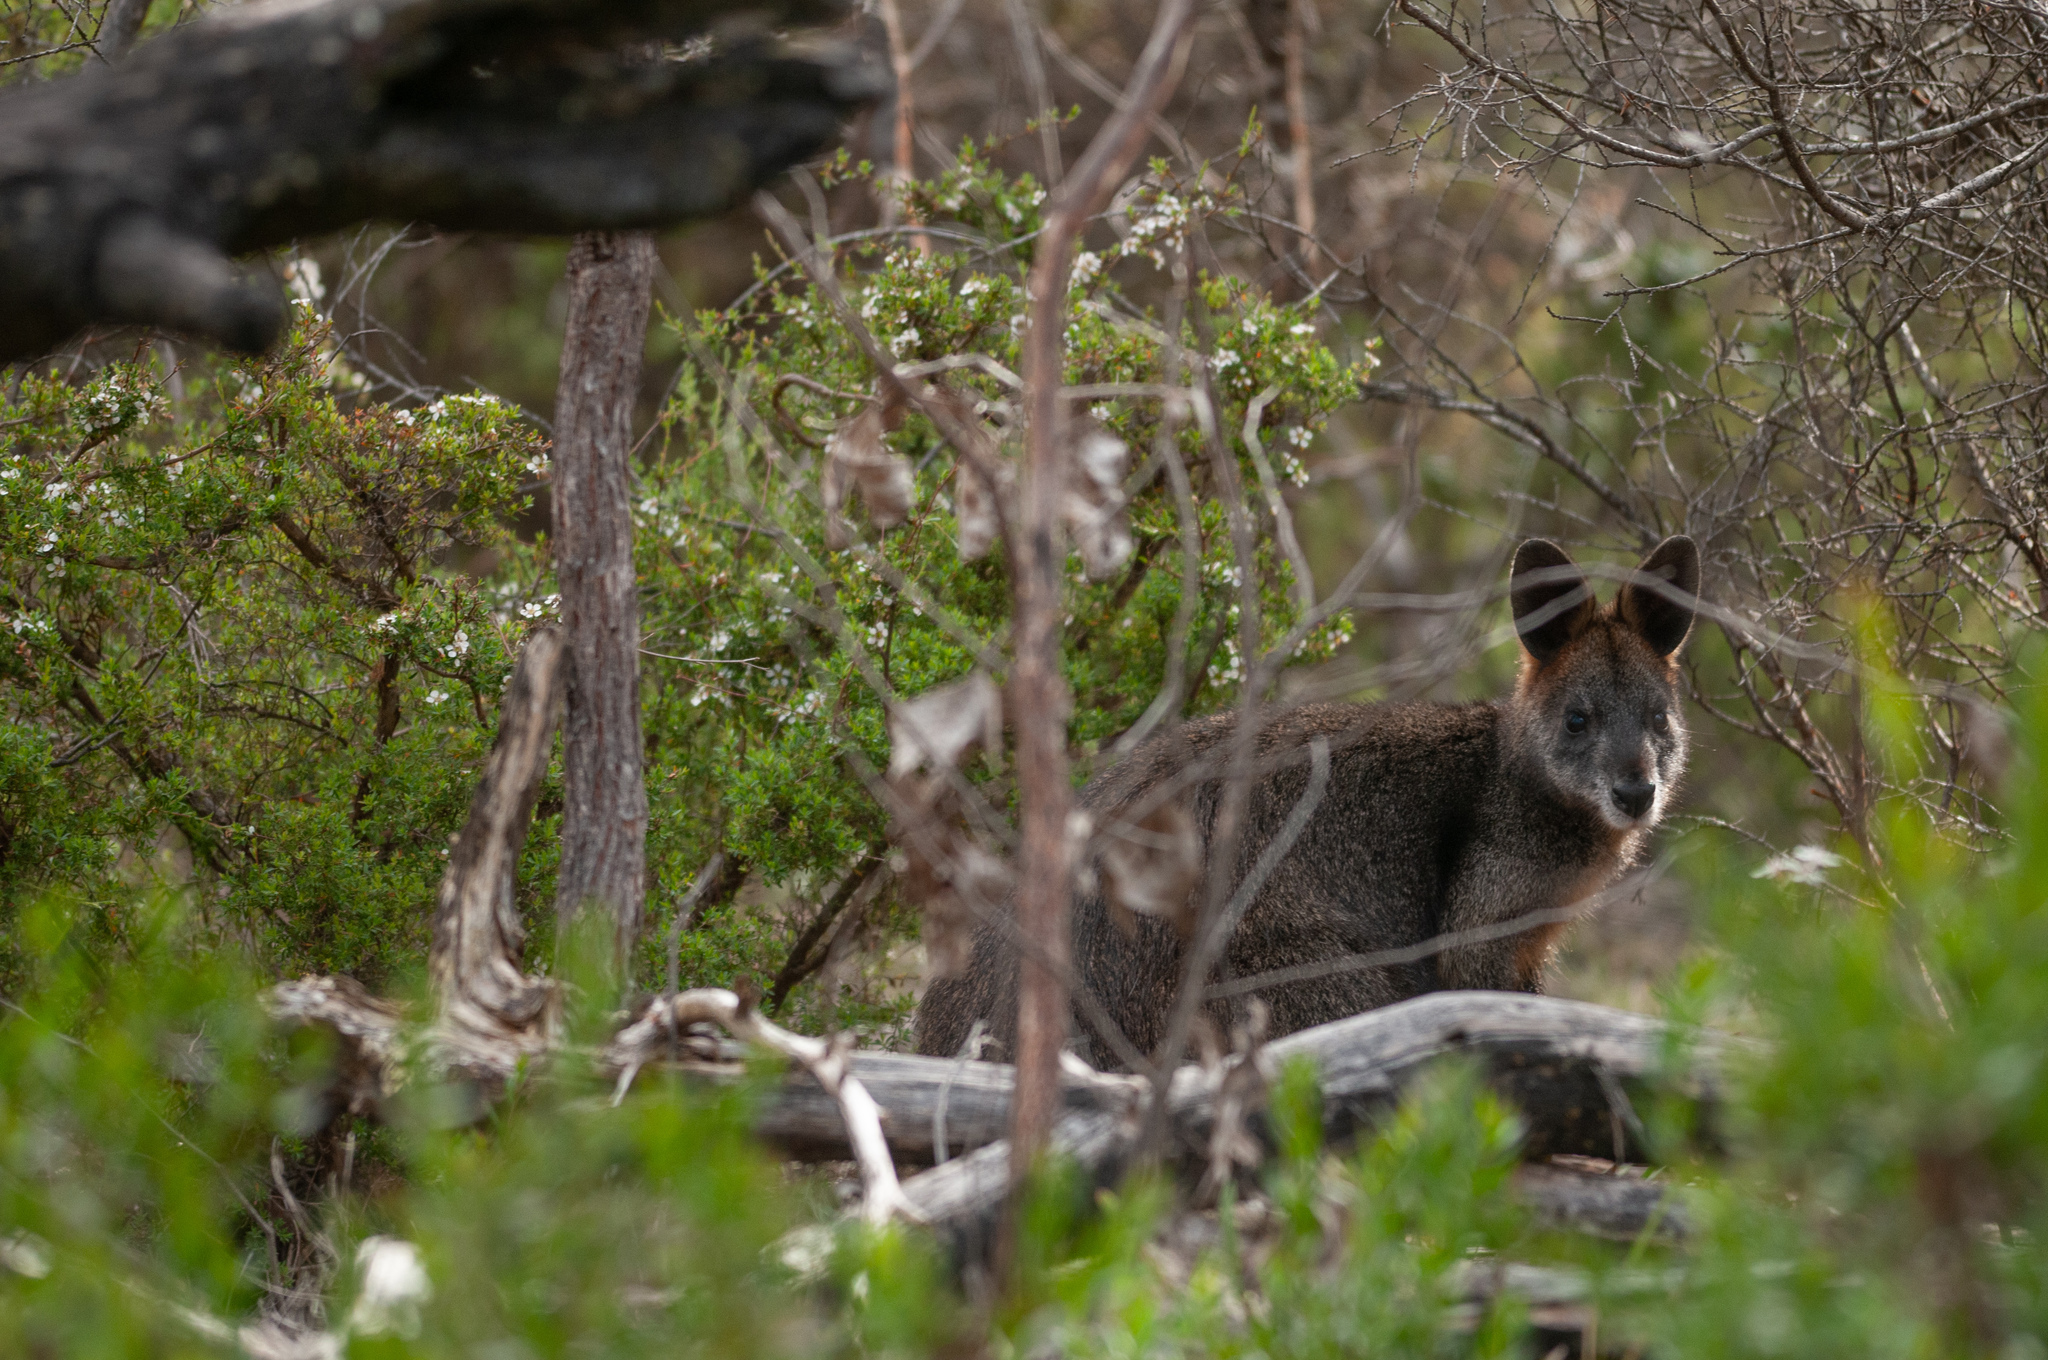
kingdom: Animalia
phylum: Chordata
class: Mammalia
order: Diprotodontia
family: Macropodidae
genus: Wallabia
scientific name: Wallabia bicolor
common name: Swamp wallaby
